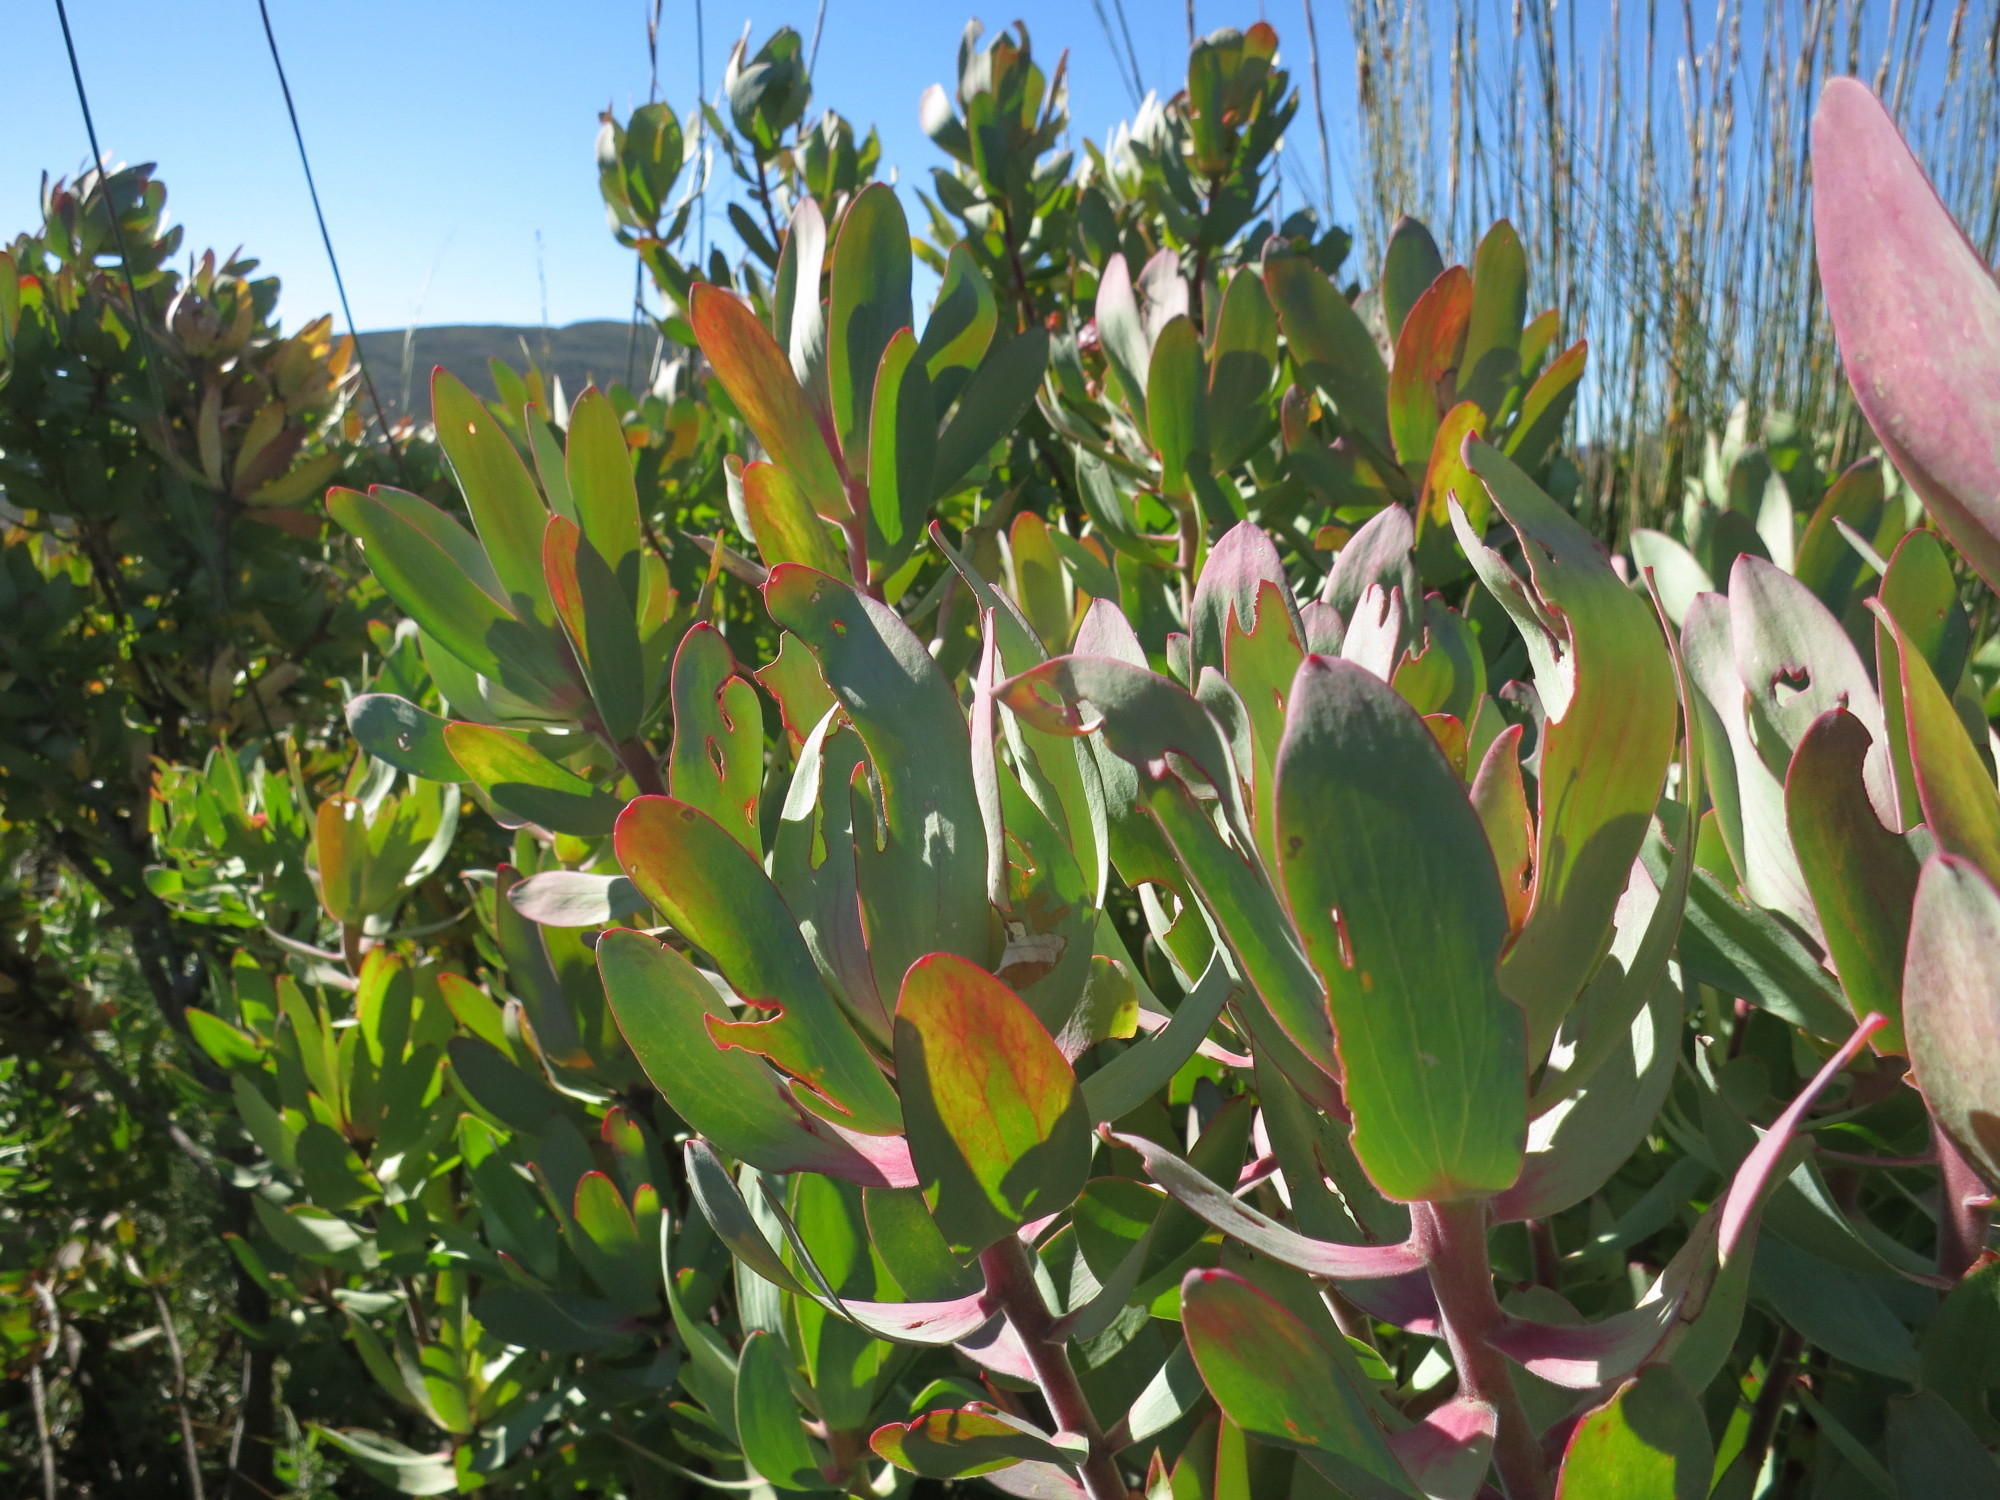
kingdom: Plantae
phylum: Tracheophyta
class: Magnoliopsida
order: Proteales
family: Proteaceae
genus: Leucadendron
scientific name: Leucadendron tinctum
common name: Spicy conebush
